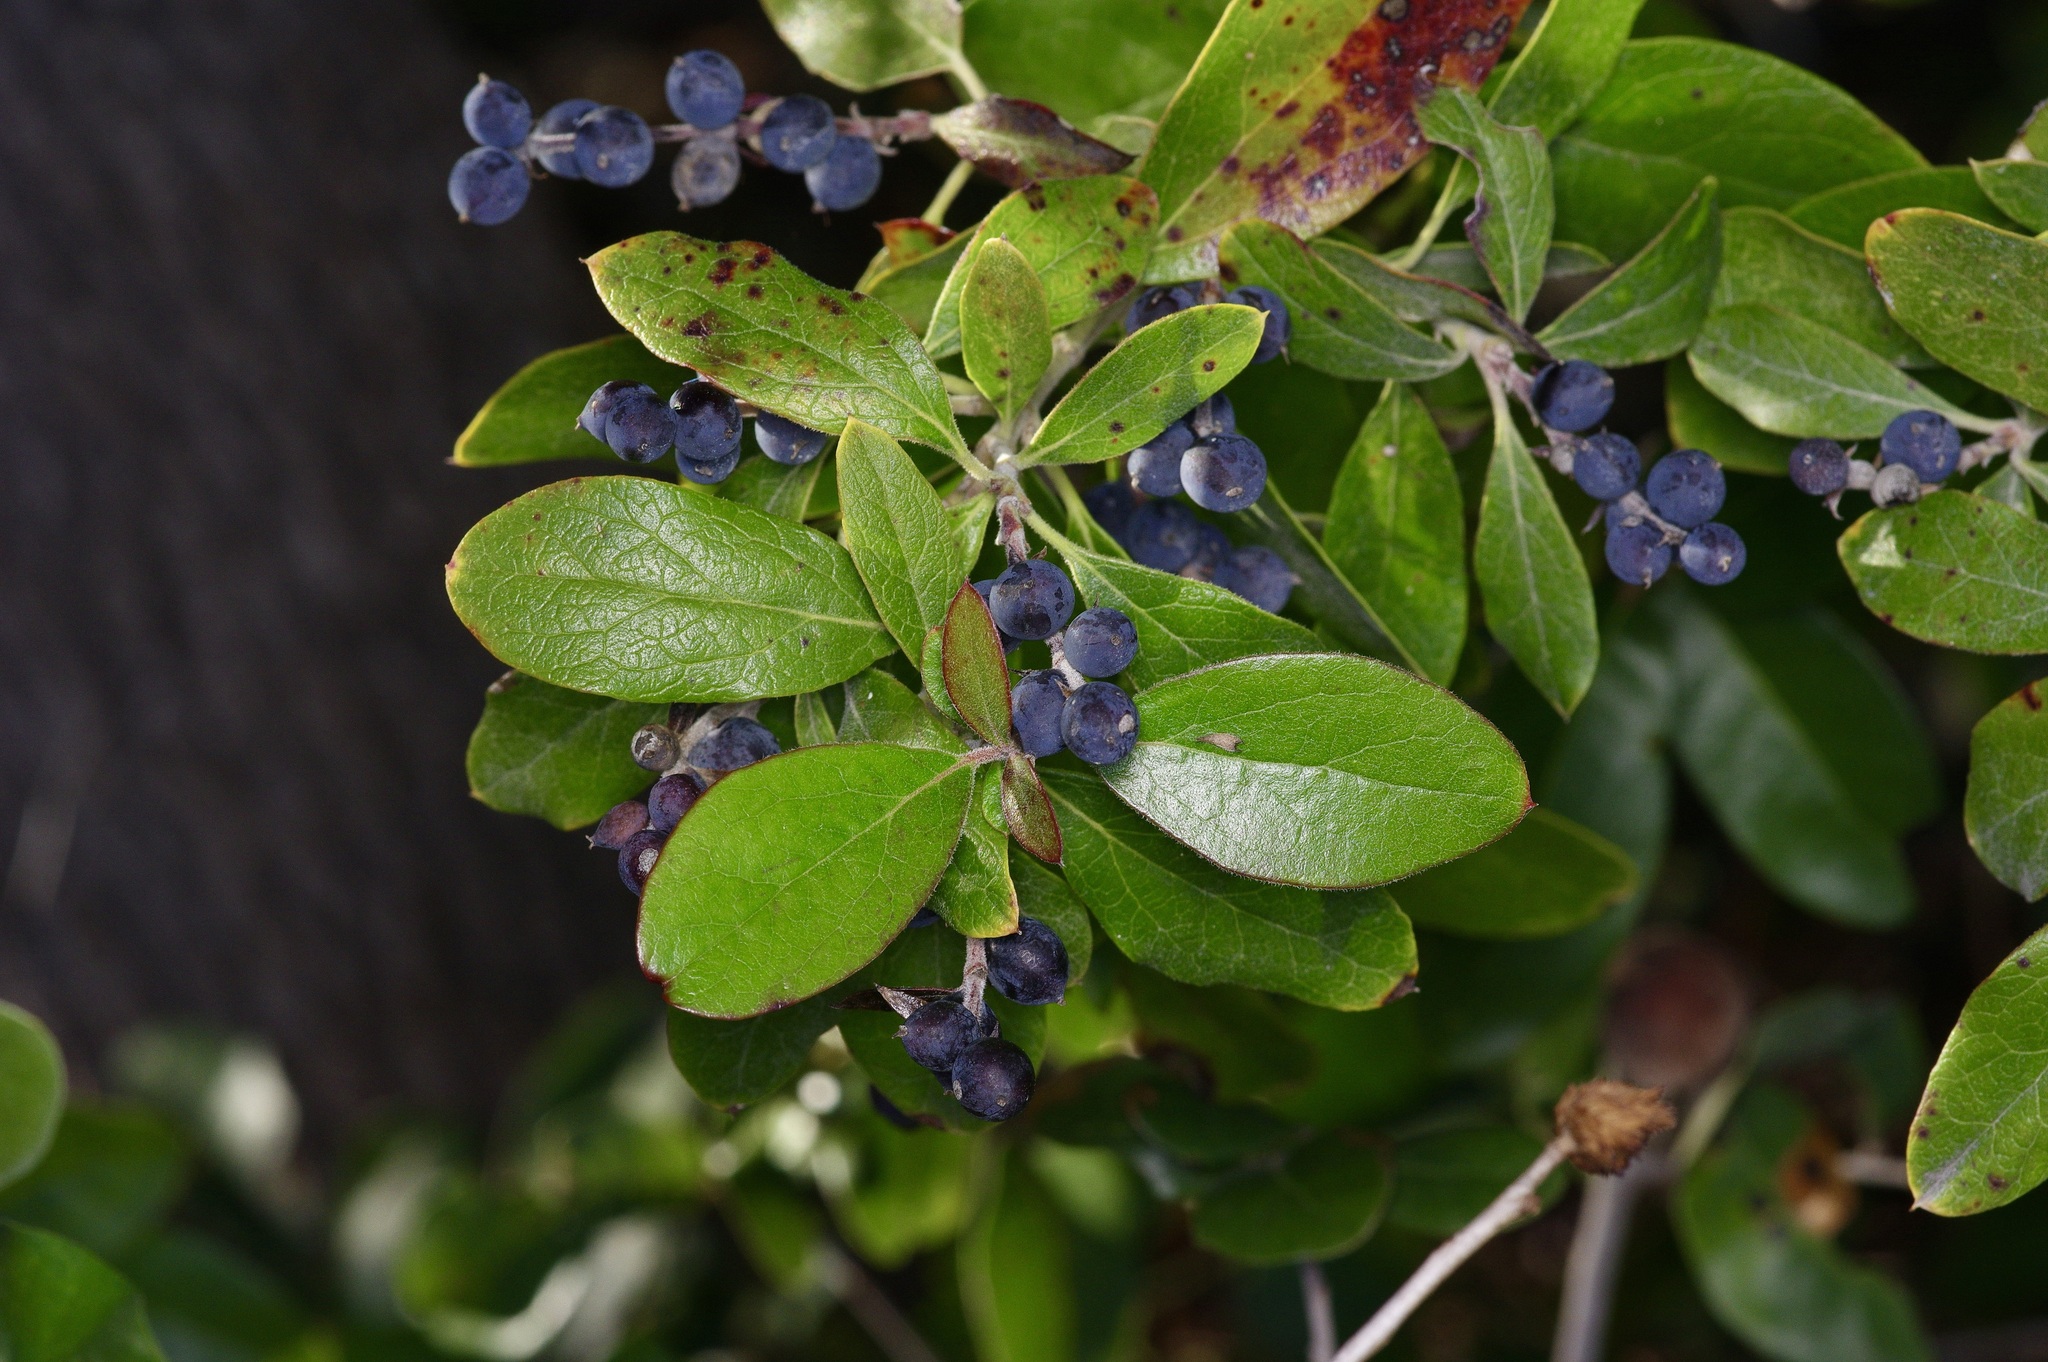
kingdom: Plantae
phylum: Tracheophyta
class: Magnoliopsida
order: Garryales
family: Garryaceae
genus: Garrya
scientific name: Garrya lindheimeri
